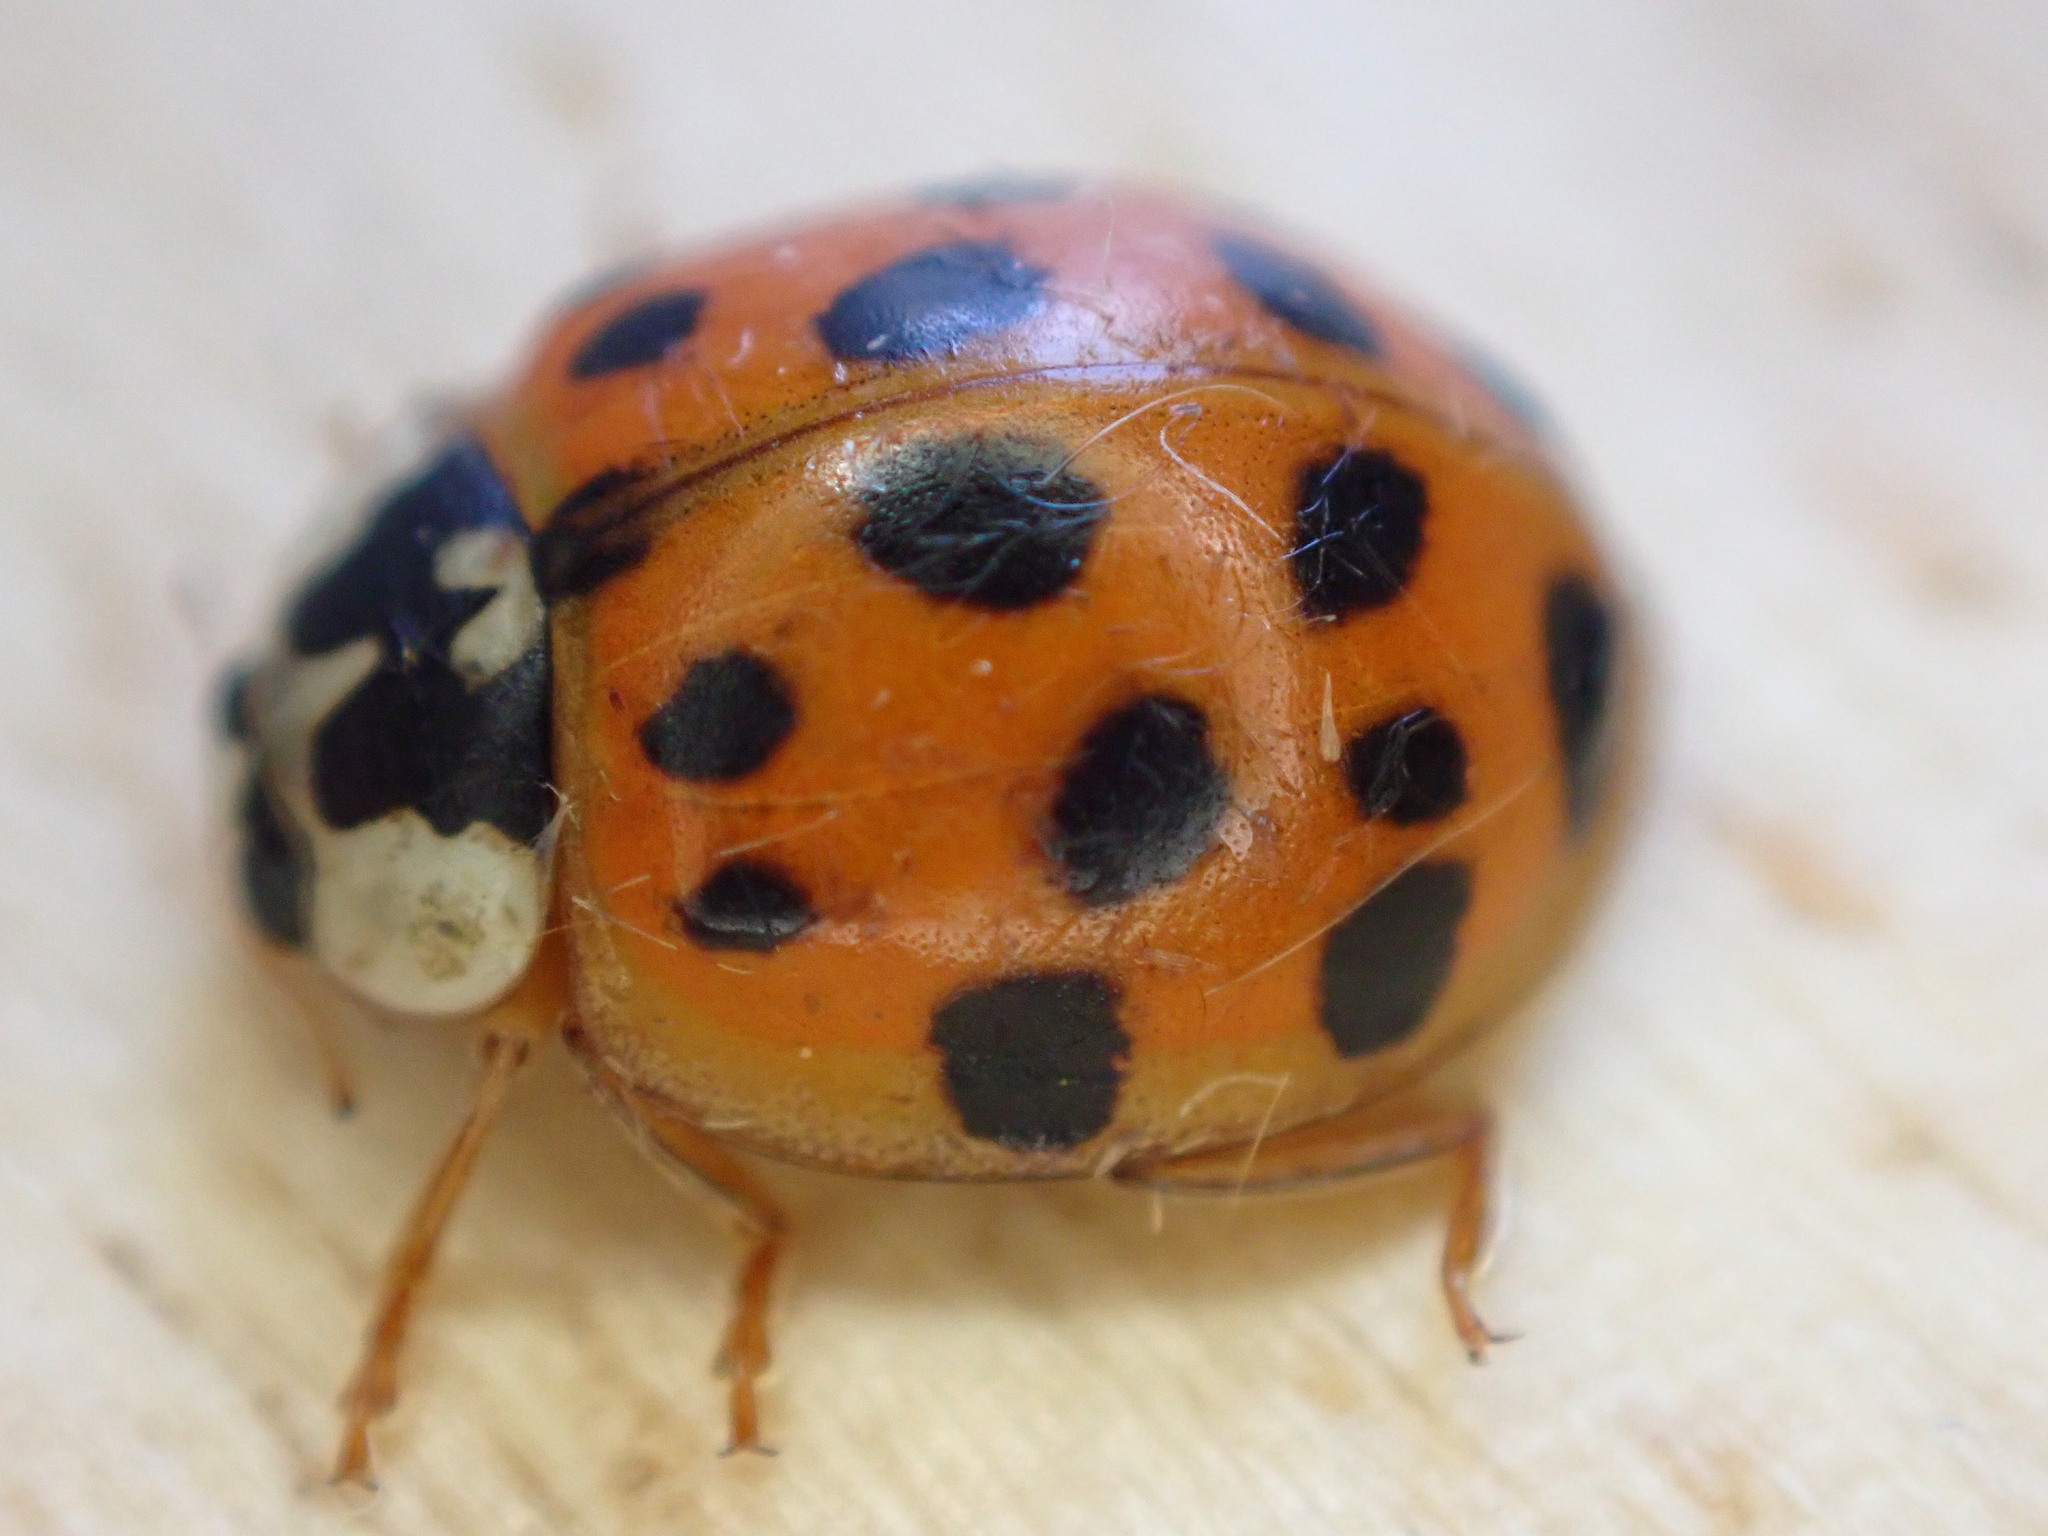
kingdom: Animalia
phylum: Arthropoda
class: Insecta
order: Coleoptera
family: Coccinellidae
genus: Harmonia
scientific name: Harmonia axyridis
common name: Harlequin ladybird
